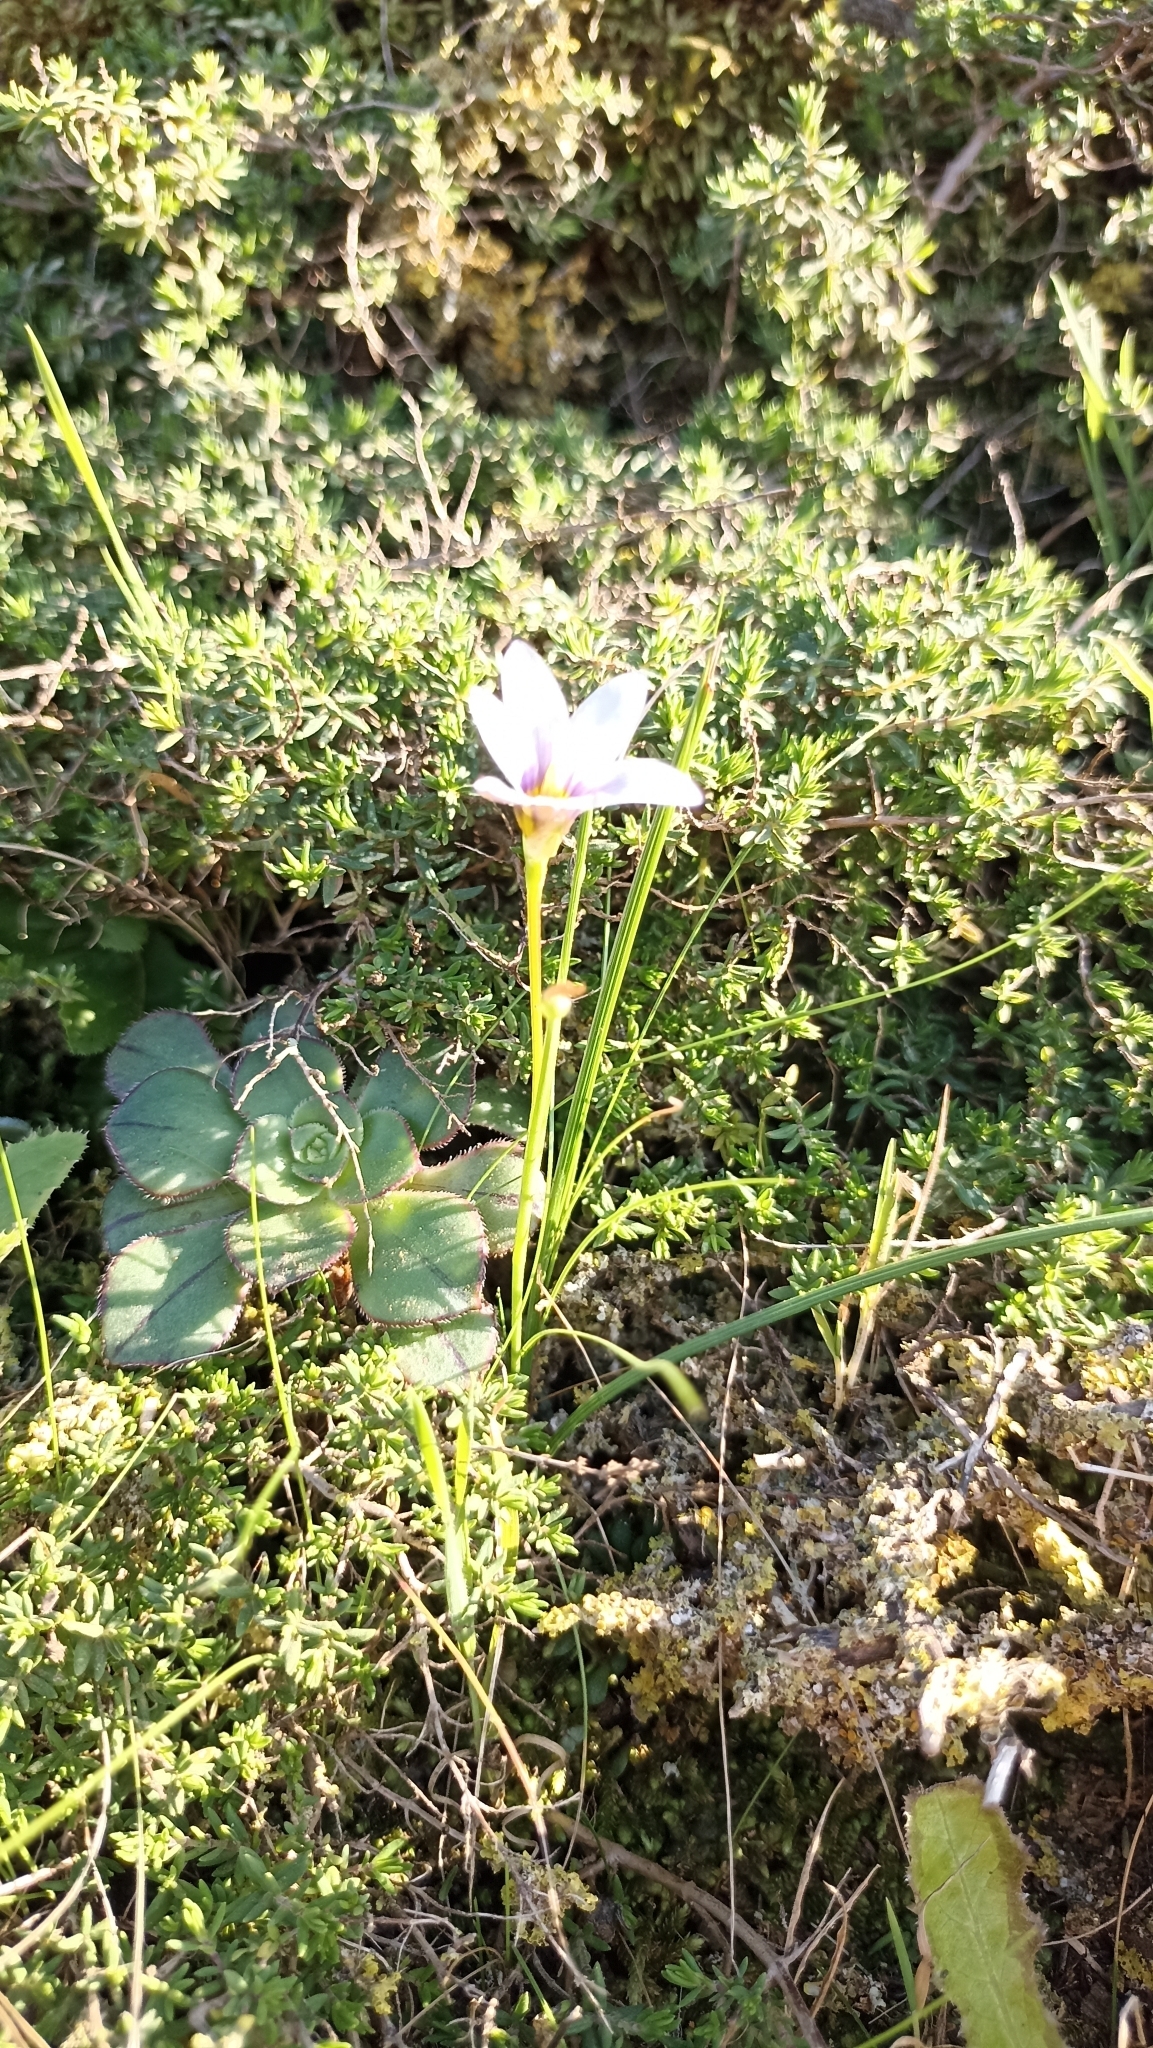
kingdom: Plantae
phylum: Tracheophyta
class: Liliopsida
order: Asparagales
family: Iridaceae
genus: Romulea
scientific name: Romulea columnae
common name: Sand-crocus
